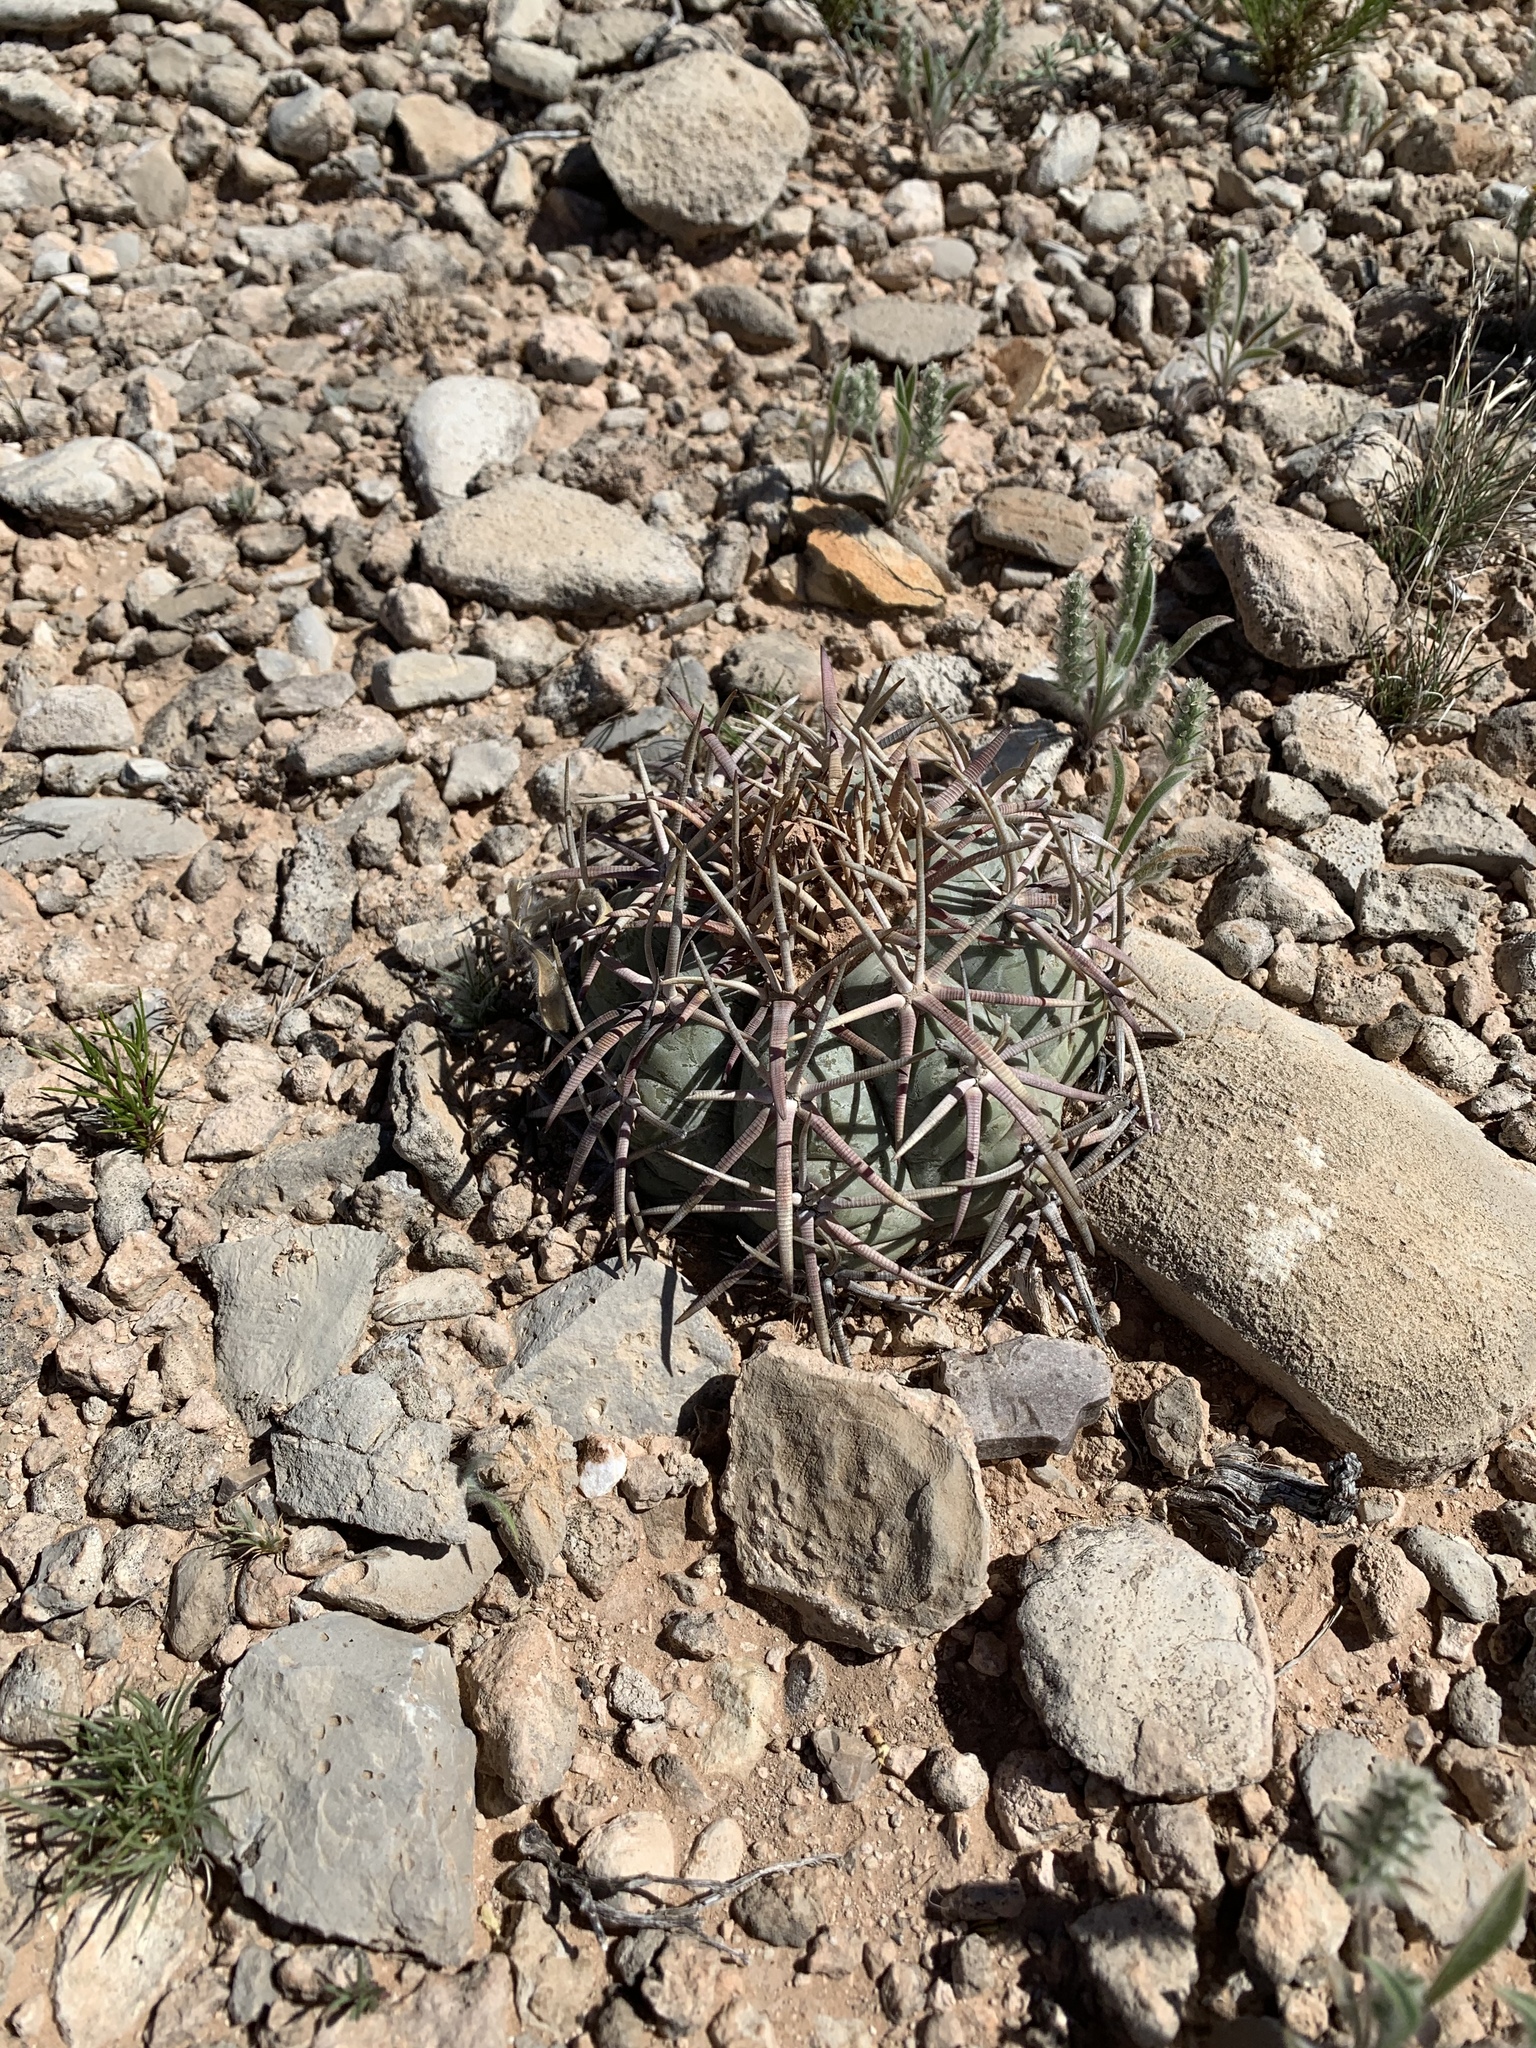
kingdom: Plantae
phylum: Tracheophyta
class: Magnoliopsida
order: Caryophyllales
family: Cactaceae
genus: Echinocactus
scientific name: Echinocactus horizonthalonius
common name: Devilshead
